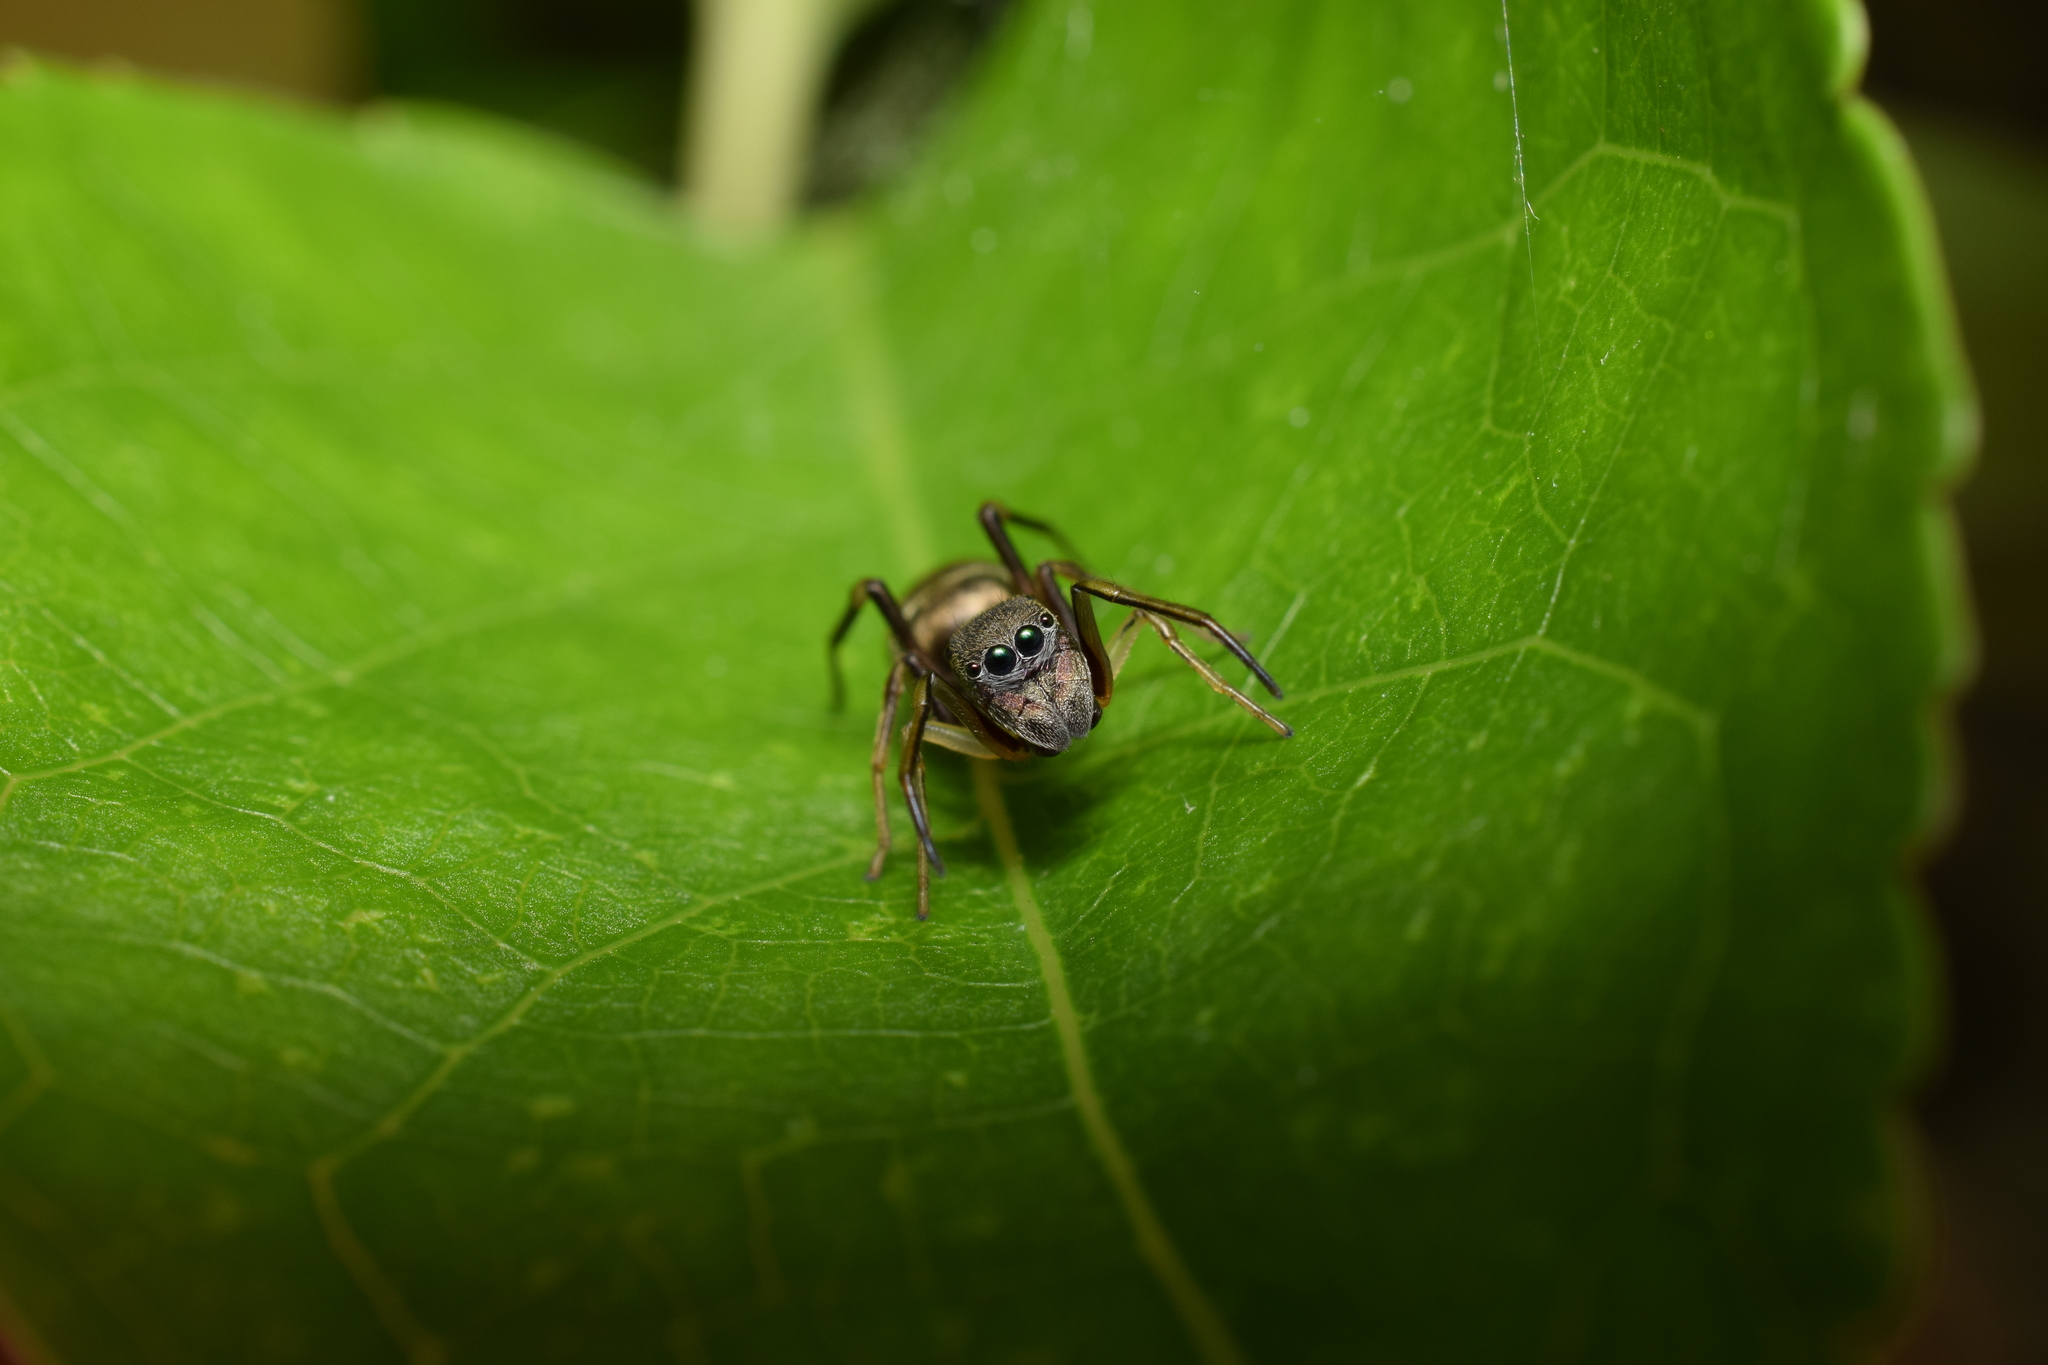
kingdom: Animalia
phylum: Arthropoda
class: Arachnida
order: Araneae
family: Salticidae
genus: Myrmarachne
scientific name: Myrmarachne japonica
